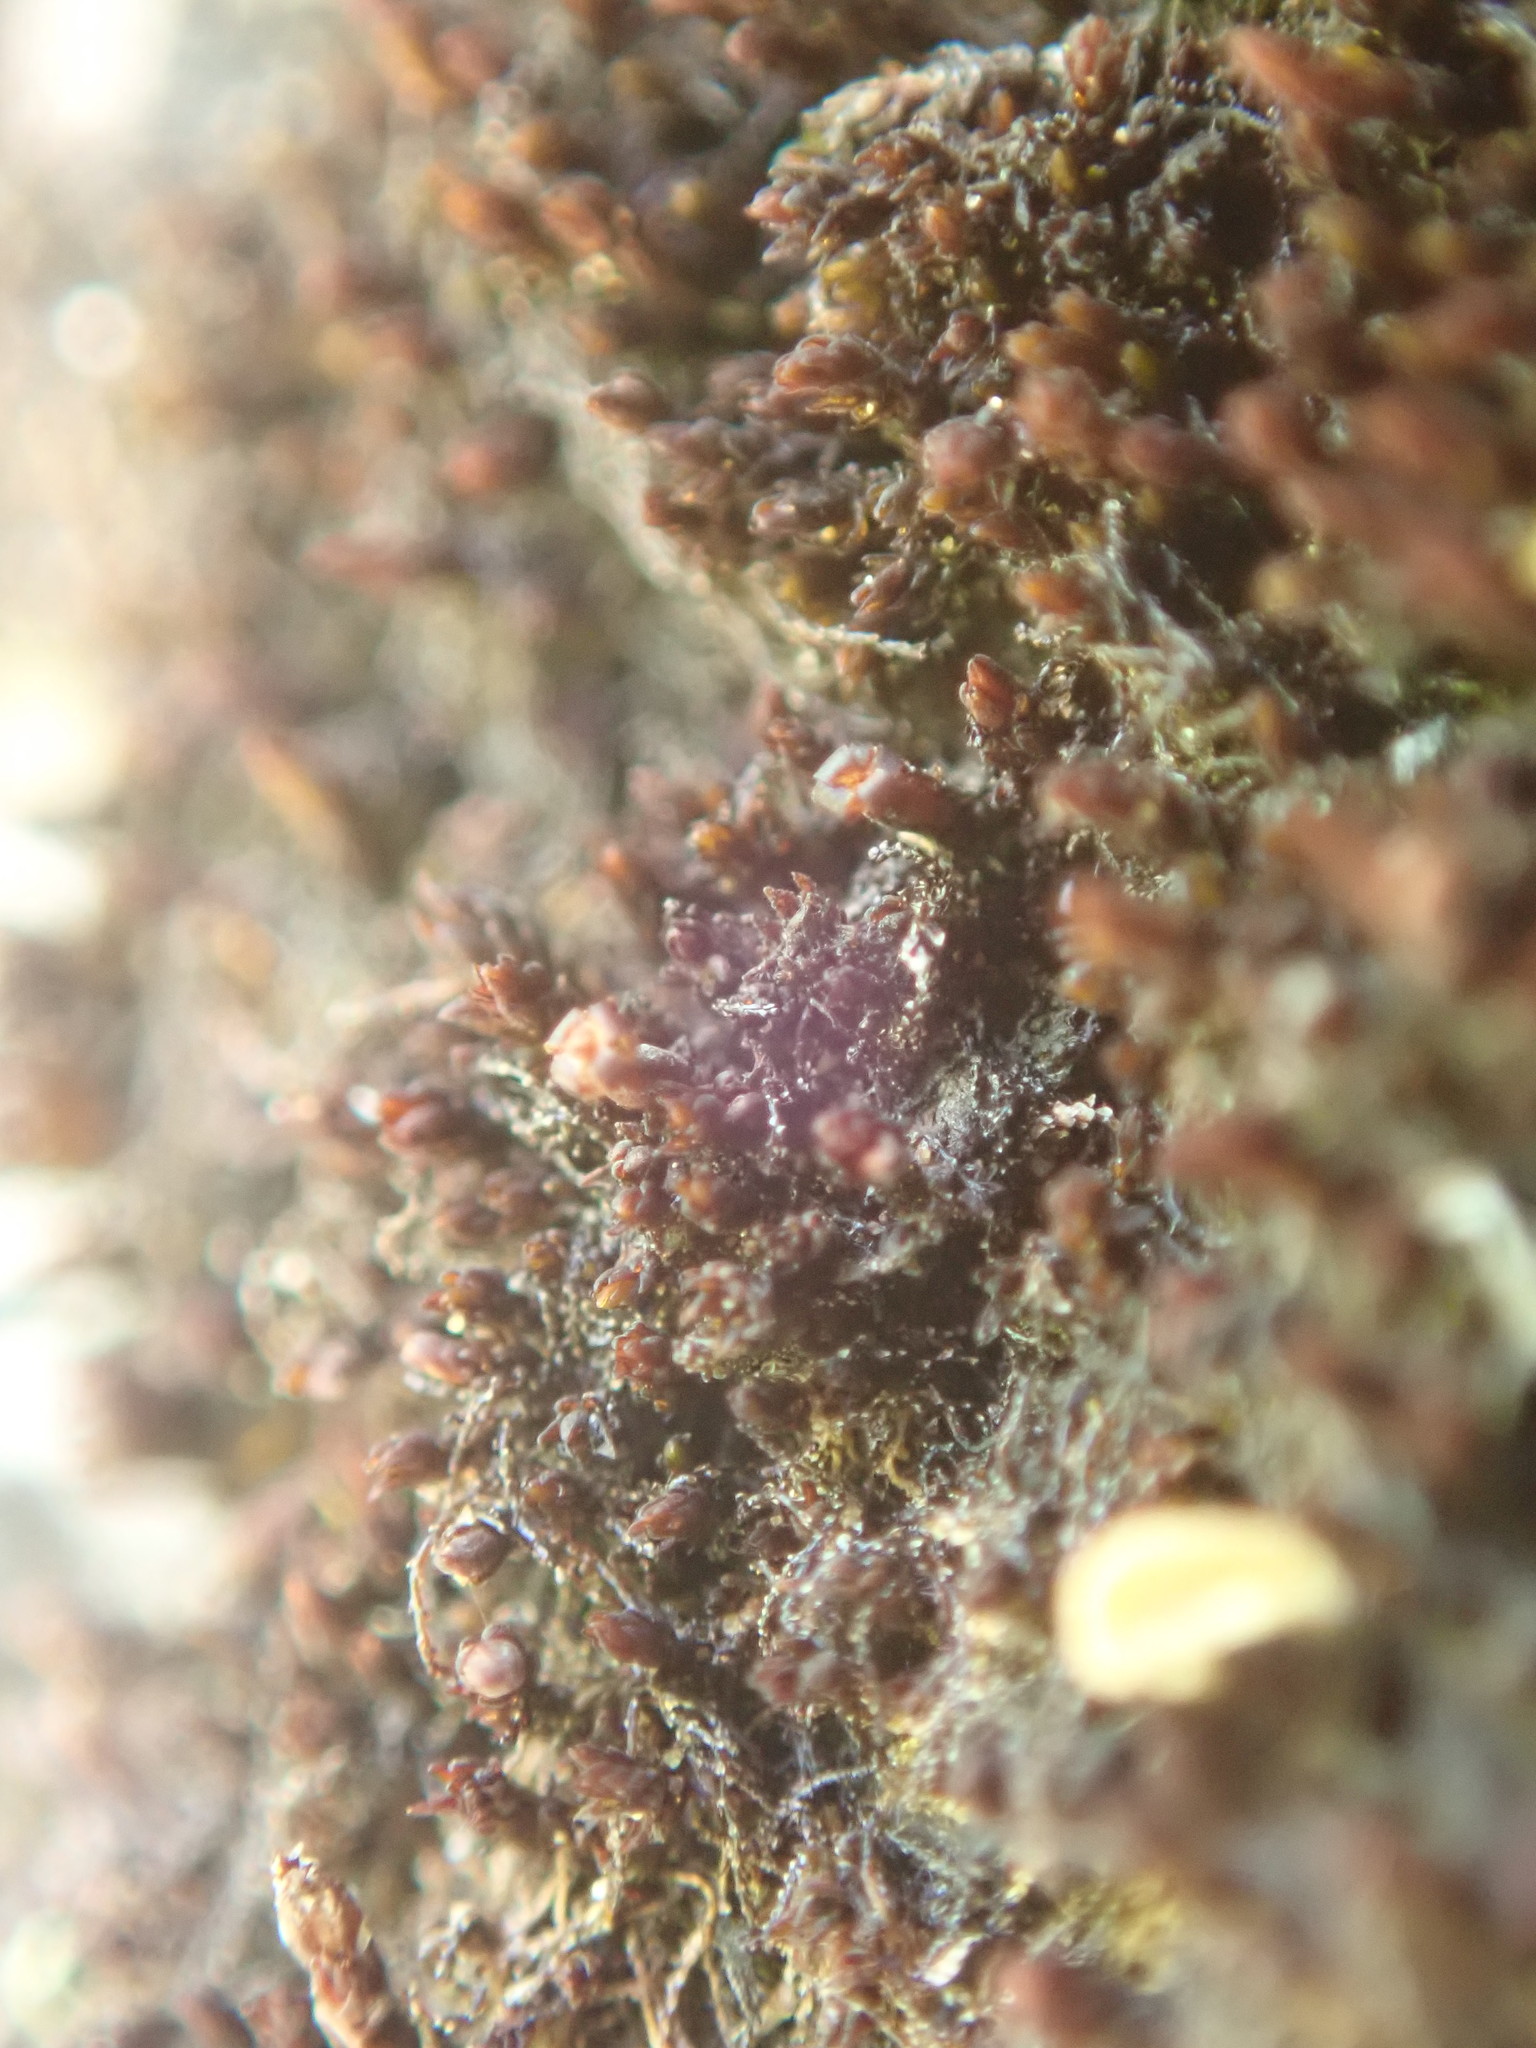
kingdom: Plantae
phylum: Bryophyta
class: Andreaeopsida
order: Andreaeales
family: Andreaeaceae
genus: Andreaea
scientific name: Andreaea rupestris
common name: Black rock moss
